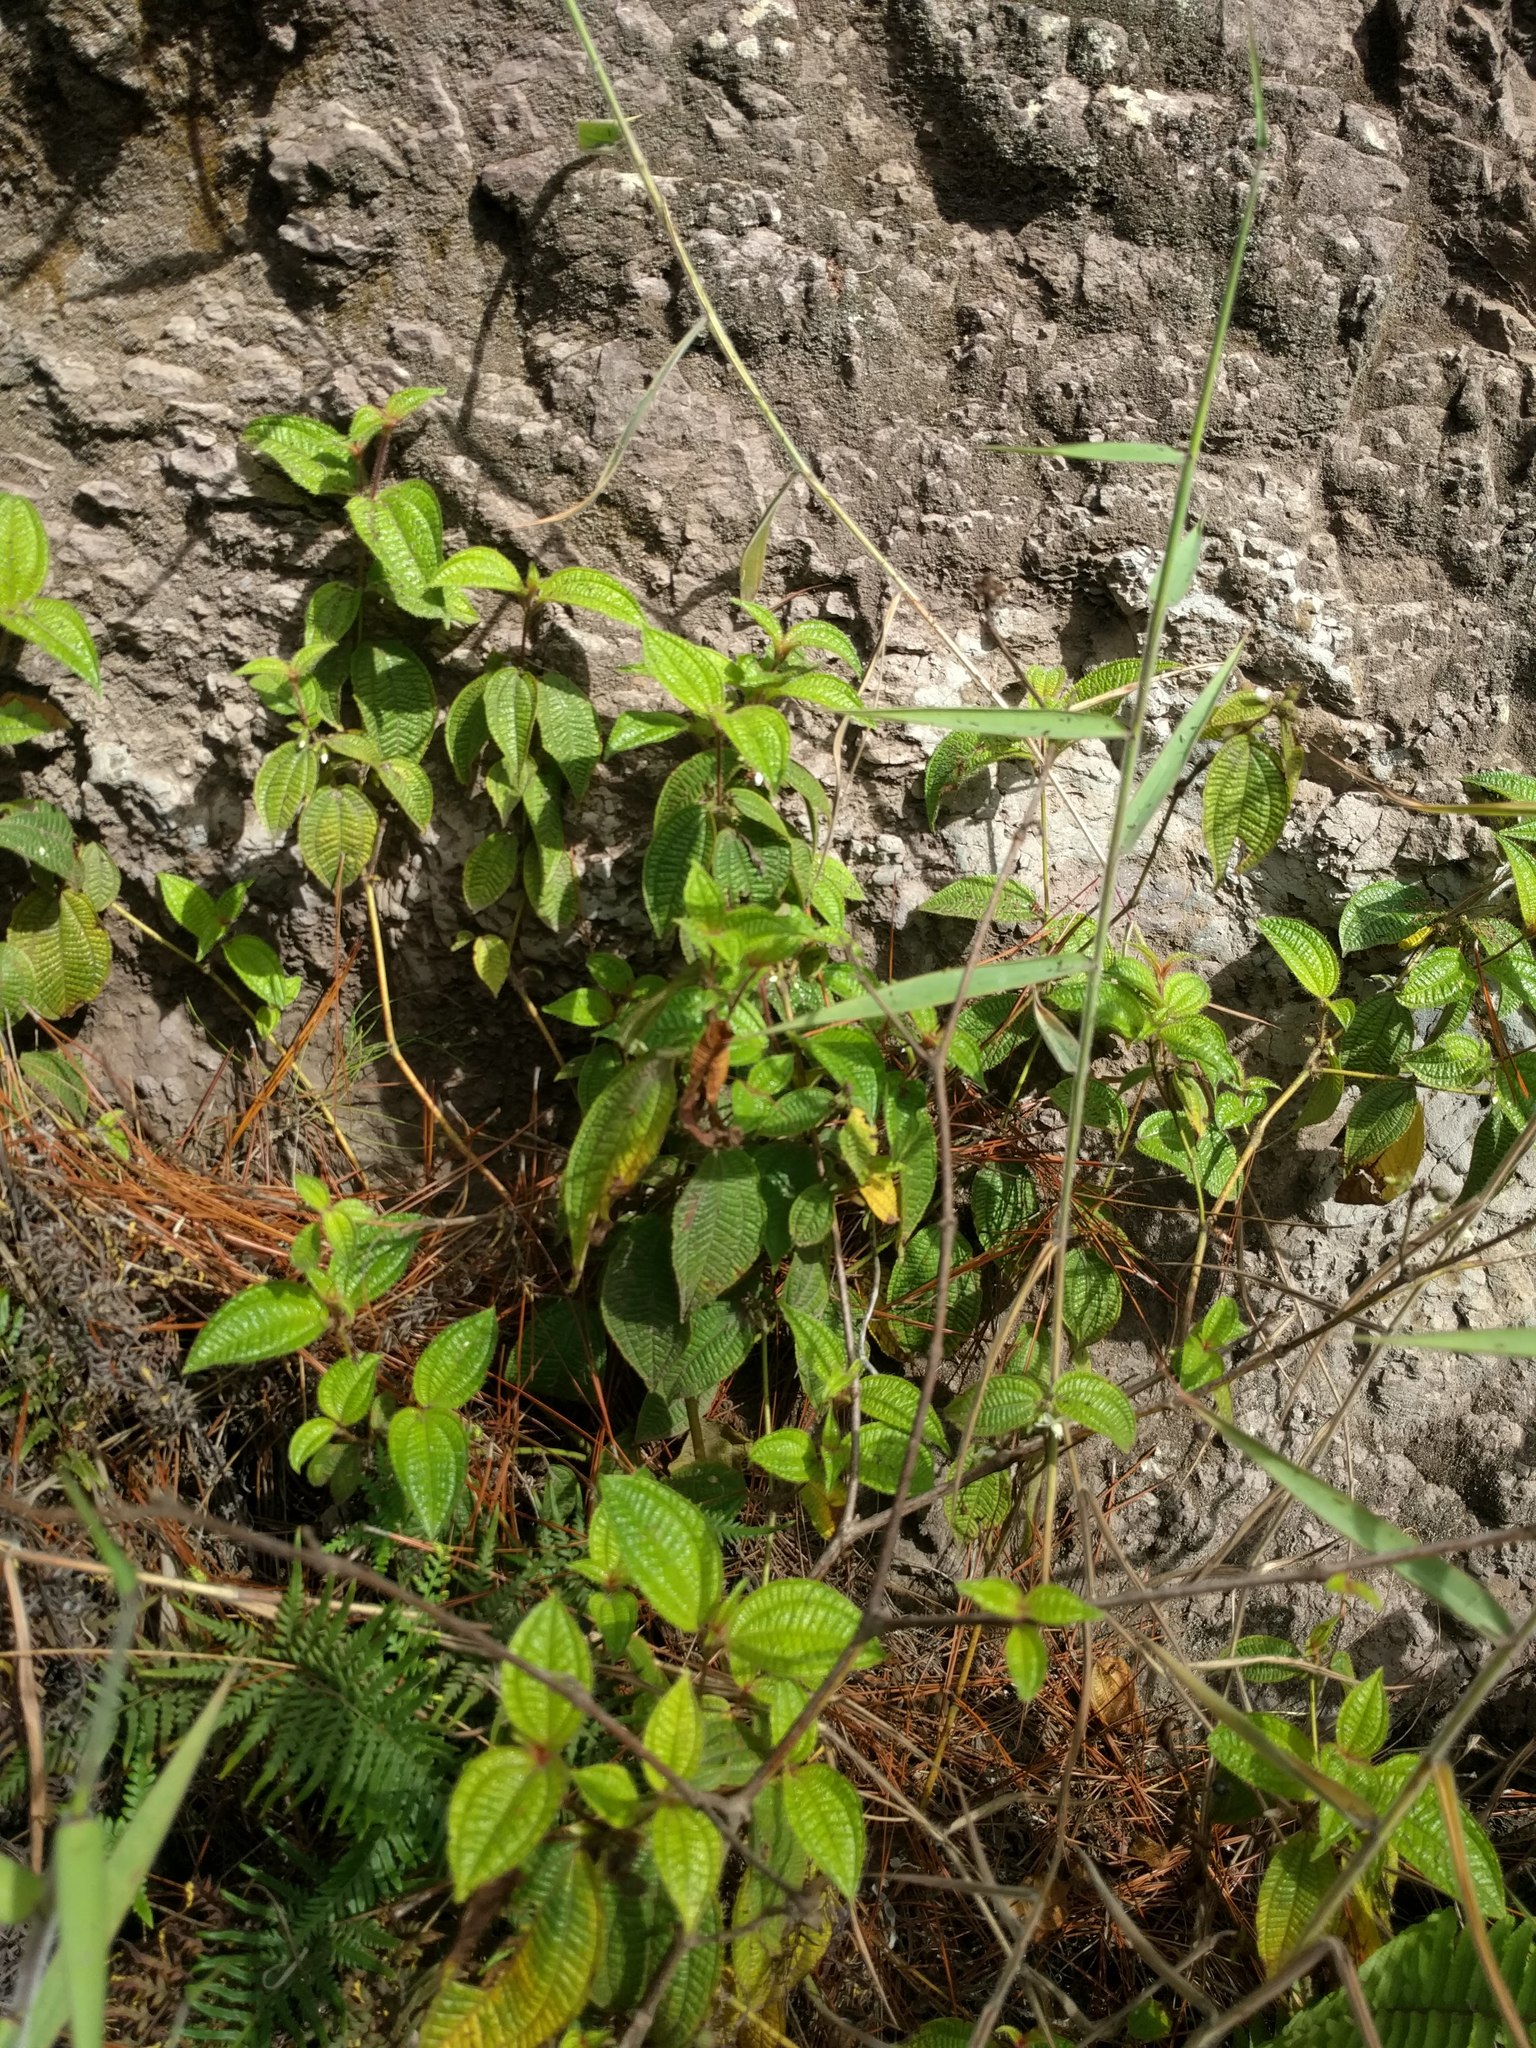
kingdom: Plantae
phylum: Tracheophyta
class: Magnoliopsida
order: Myrtales
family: Melastomataceae
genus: Miconia
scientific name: Miconia crenata
